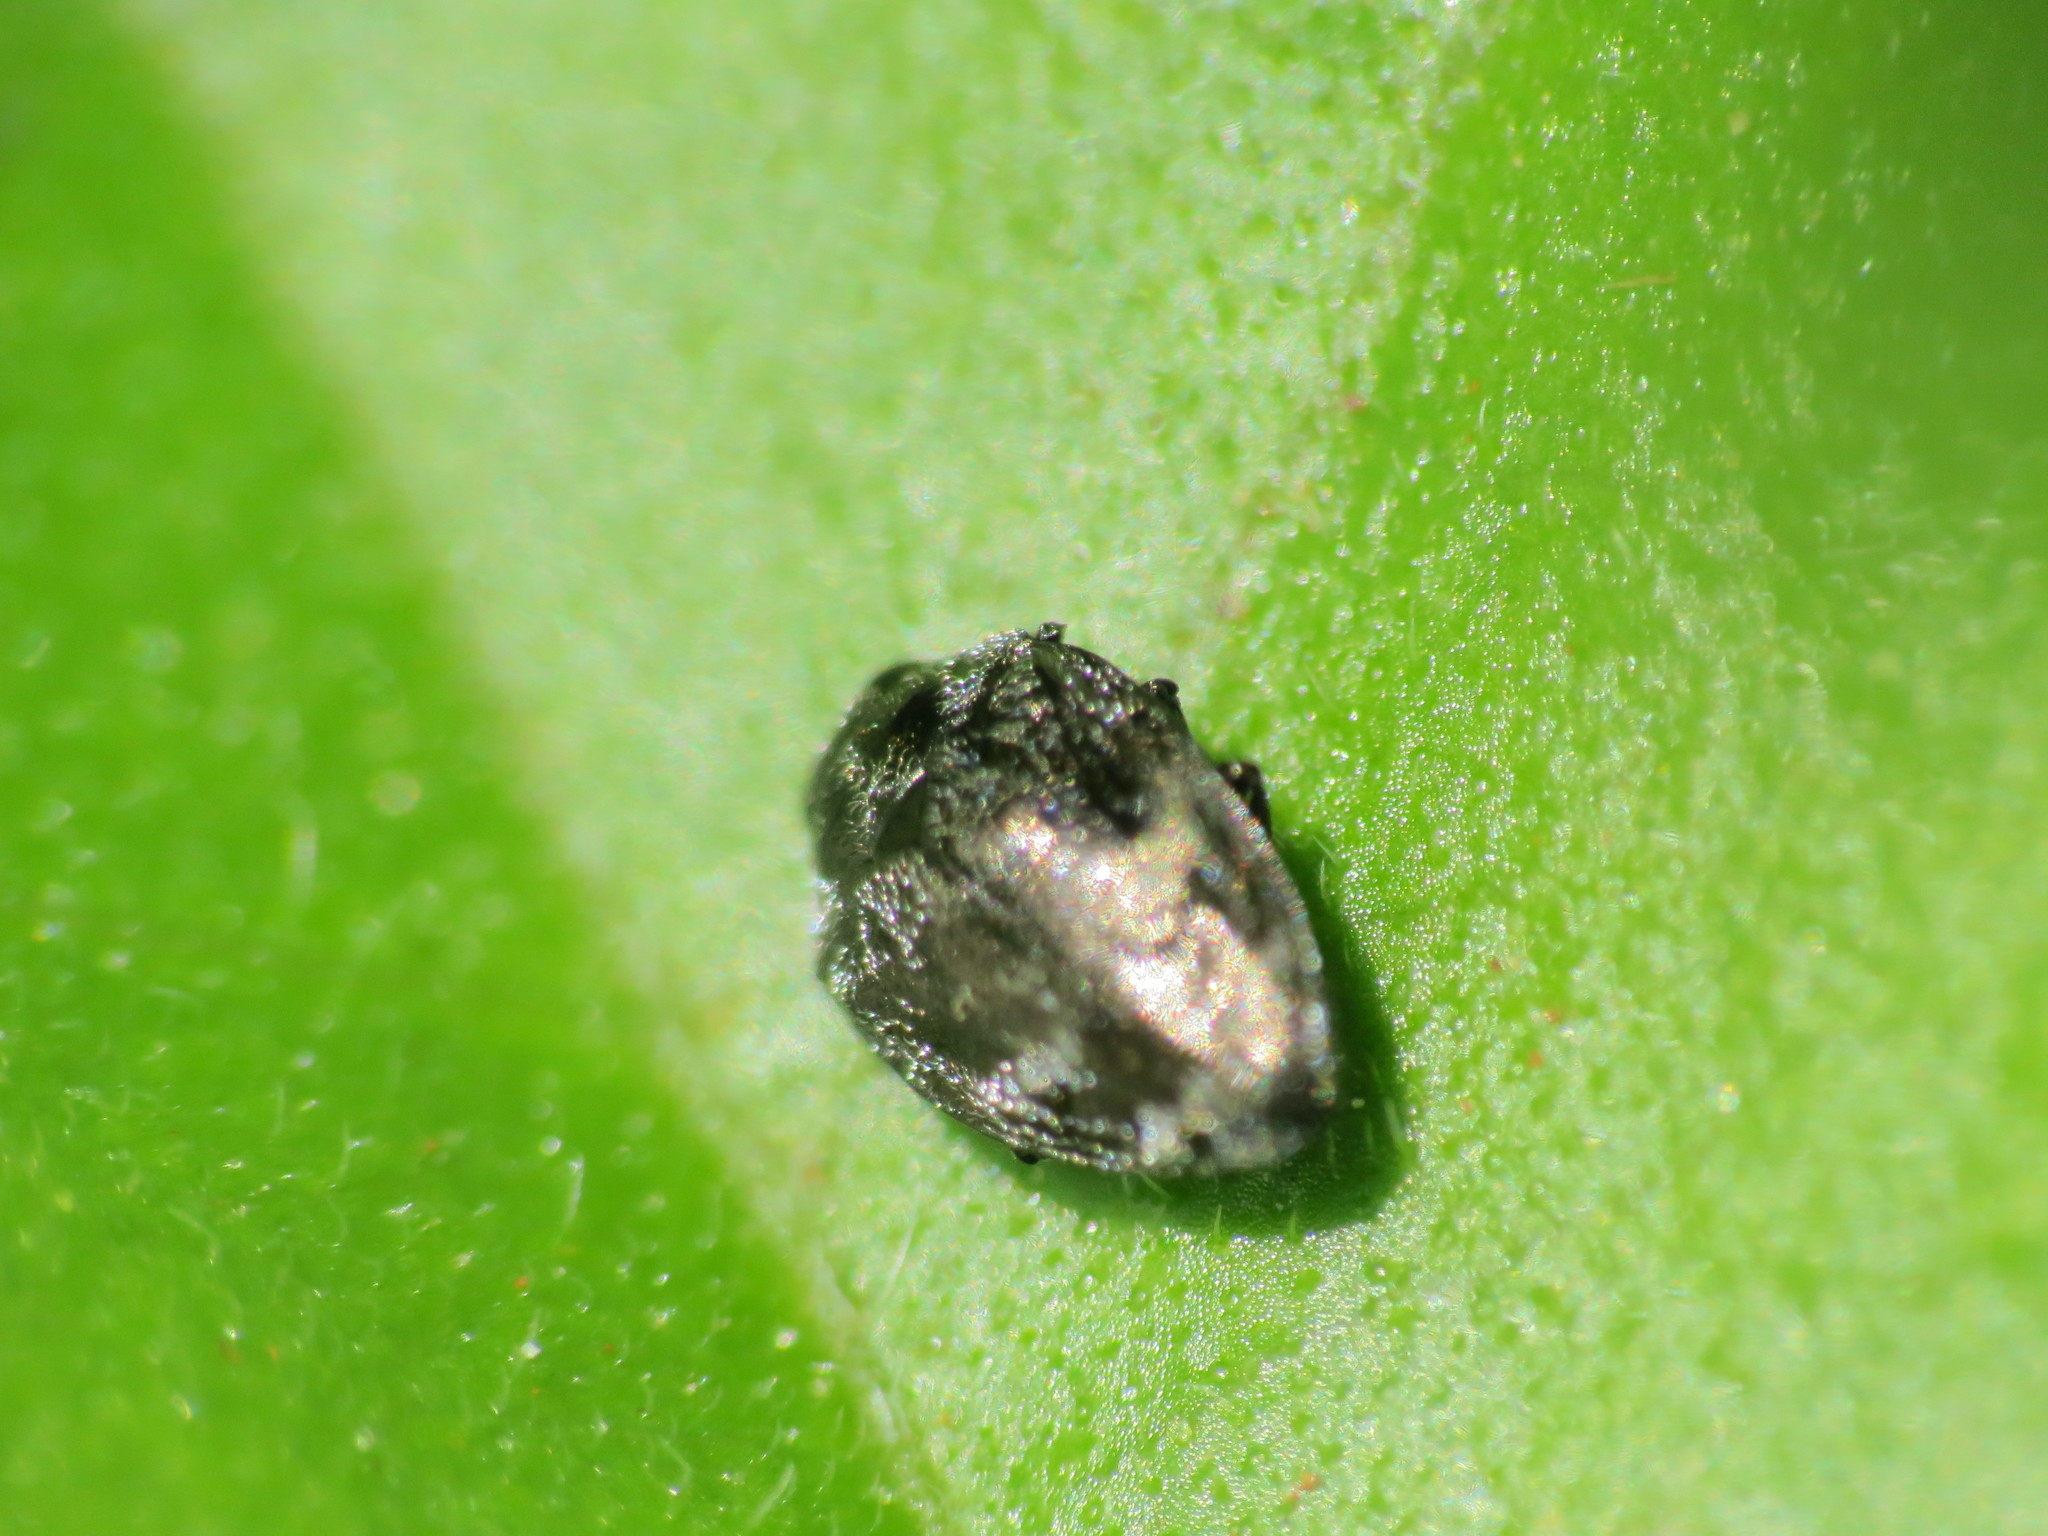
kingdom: Animalia
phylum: Arthropoda
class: Insecta
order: Coleoptera
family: Buprestidae
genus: Euhylaeogena
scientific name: Euhylaeogena
